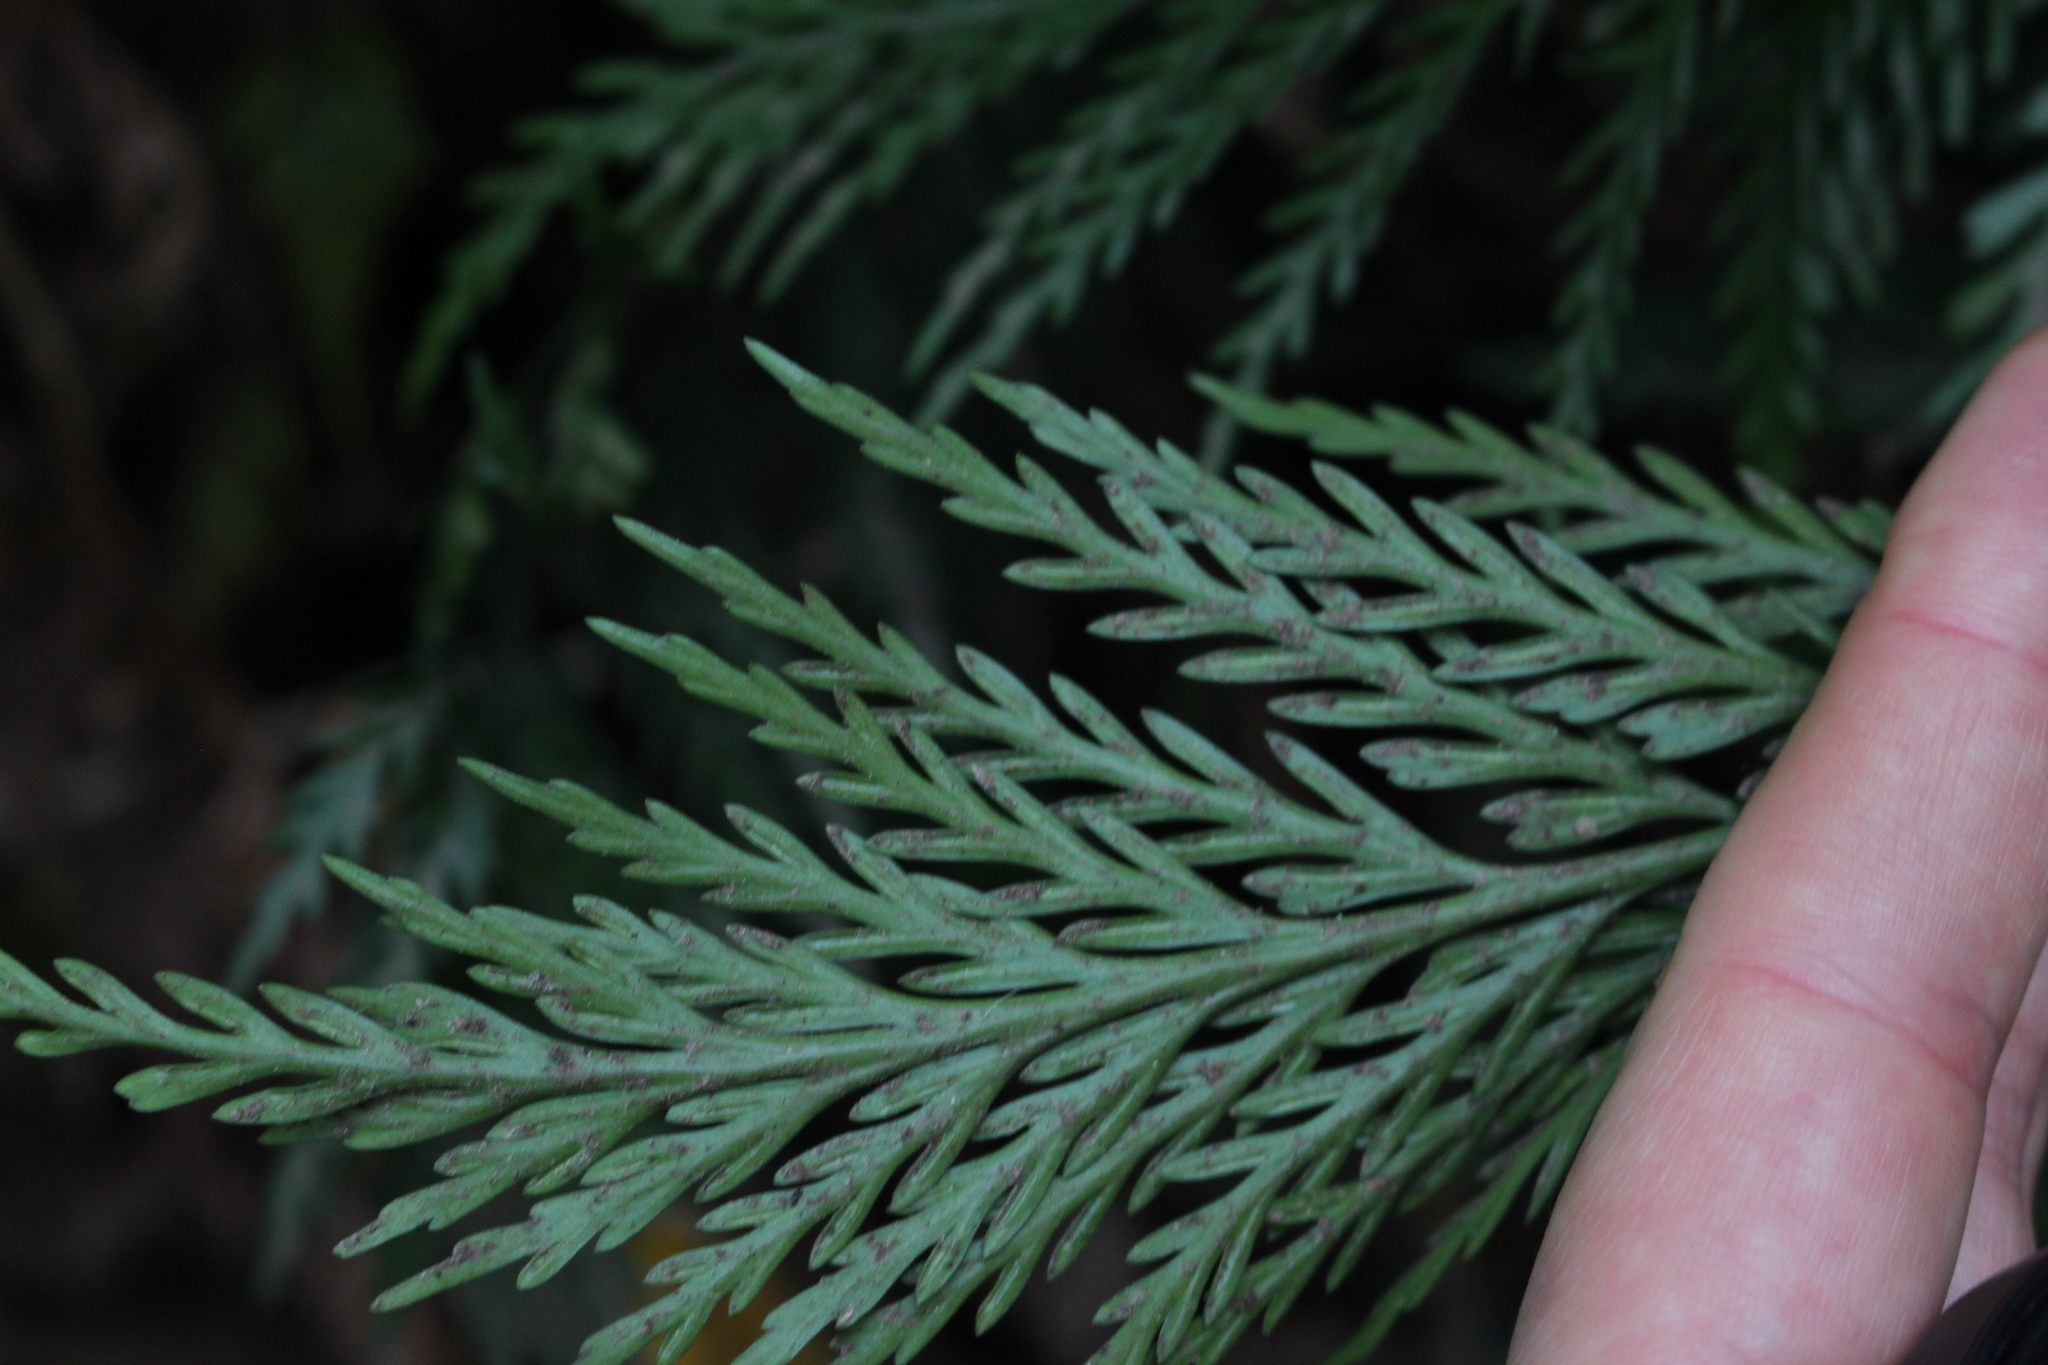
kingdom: Plantae
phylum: Tracheophyta
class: Polypodiopsida
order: Polypodiales
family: Aspleniaceae
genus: Asplenium
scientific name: Asplenium appendiculatum
